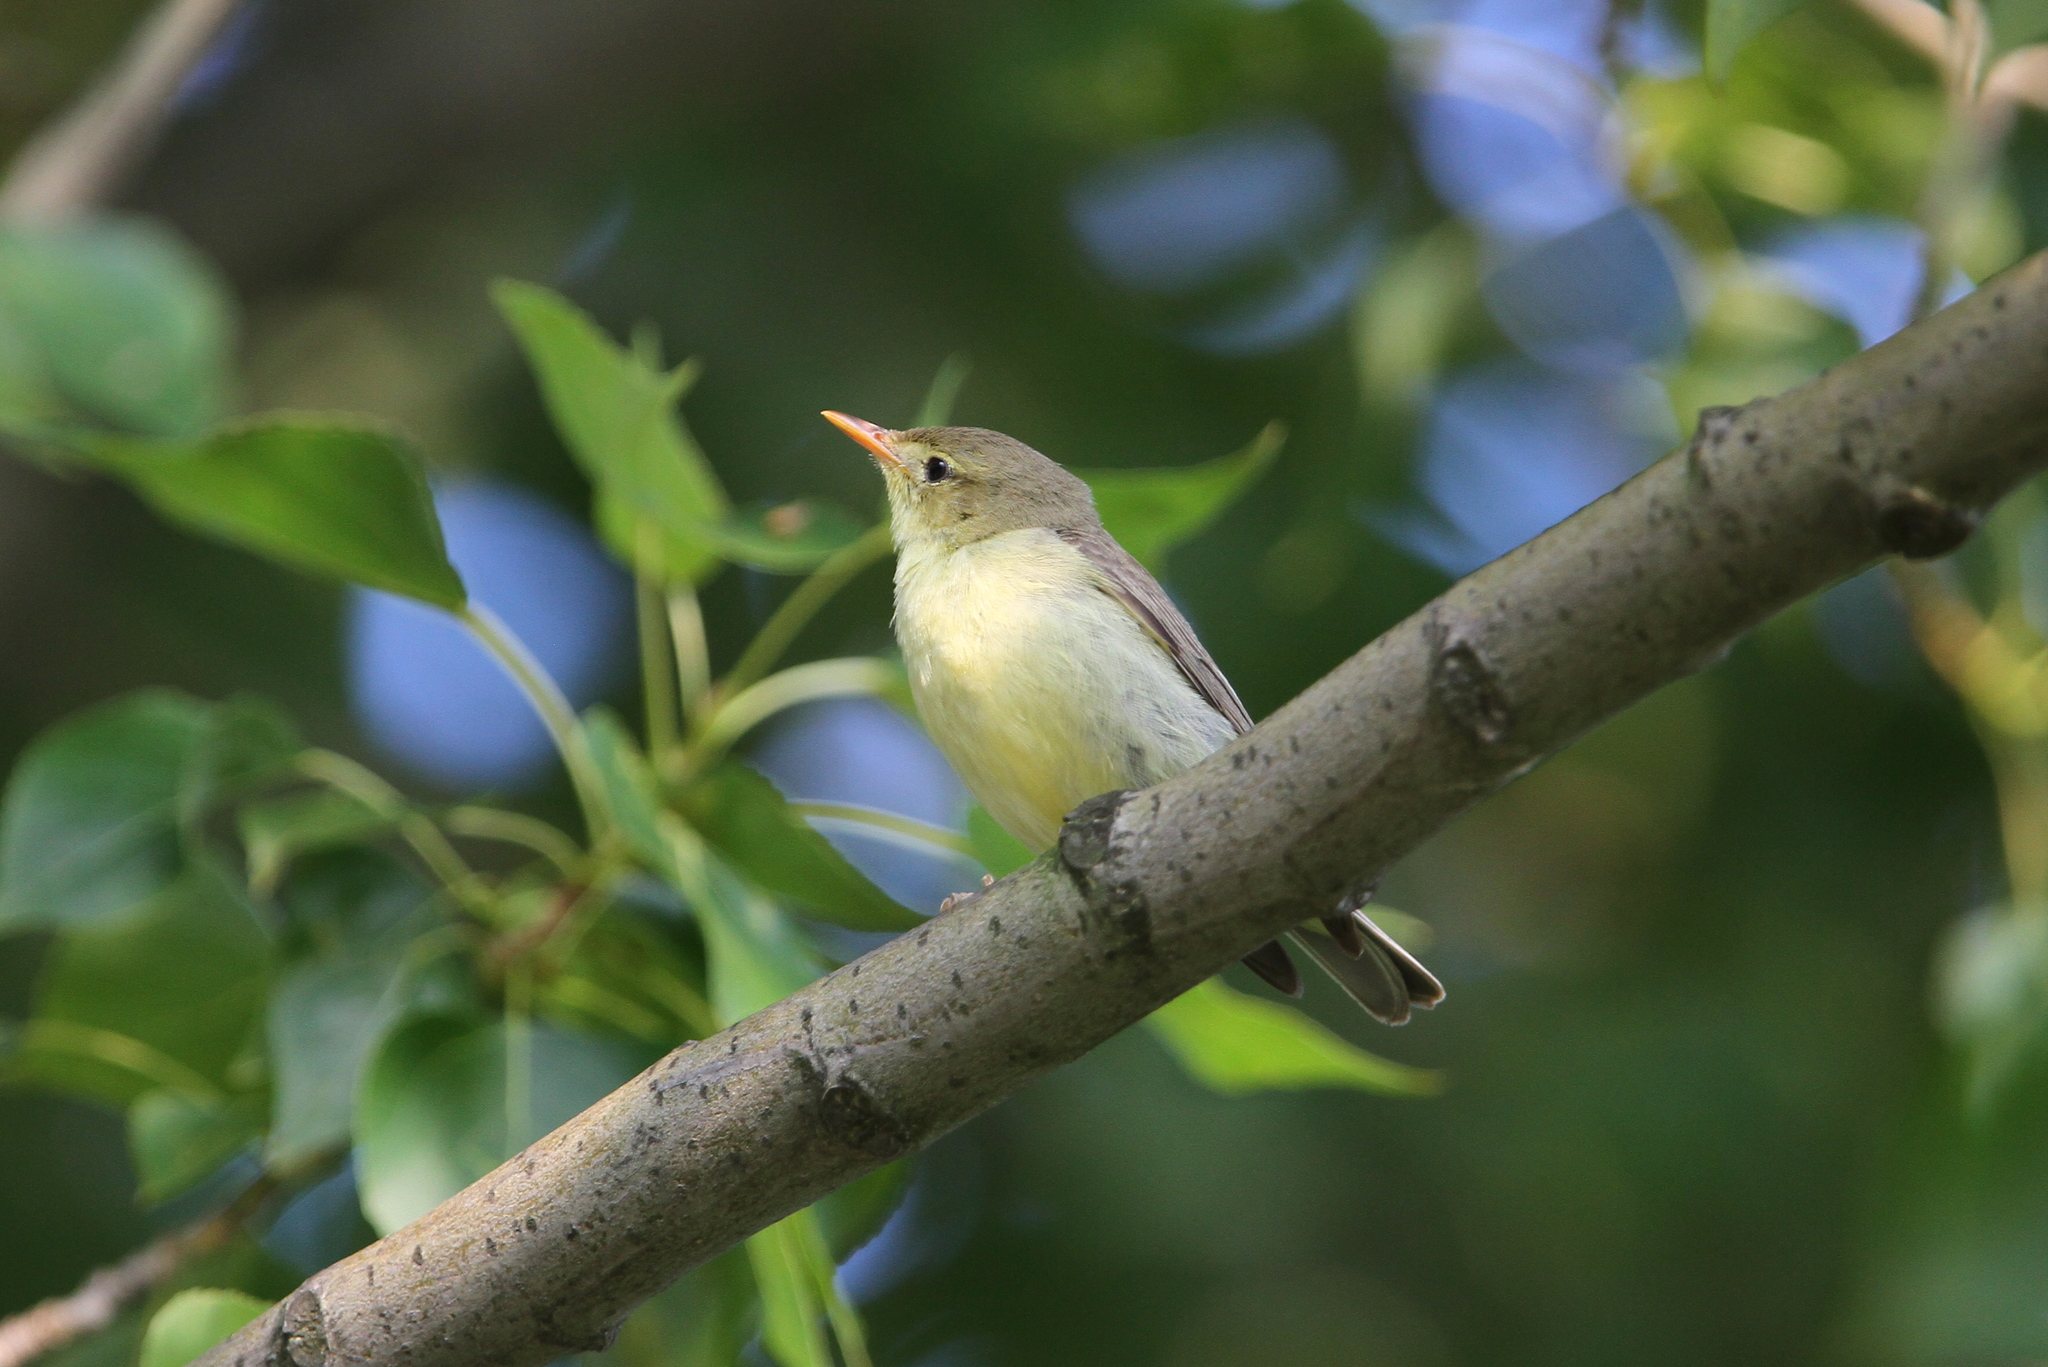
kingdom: Animalia
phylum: Chordata
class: Aves
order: Passeriformes
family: Acrocephalidae
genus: Hippolais
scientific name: Hippolais icterina
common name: Icterine warbler
